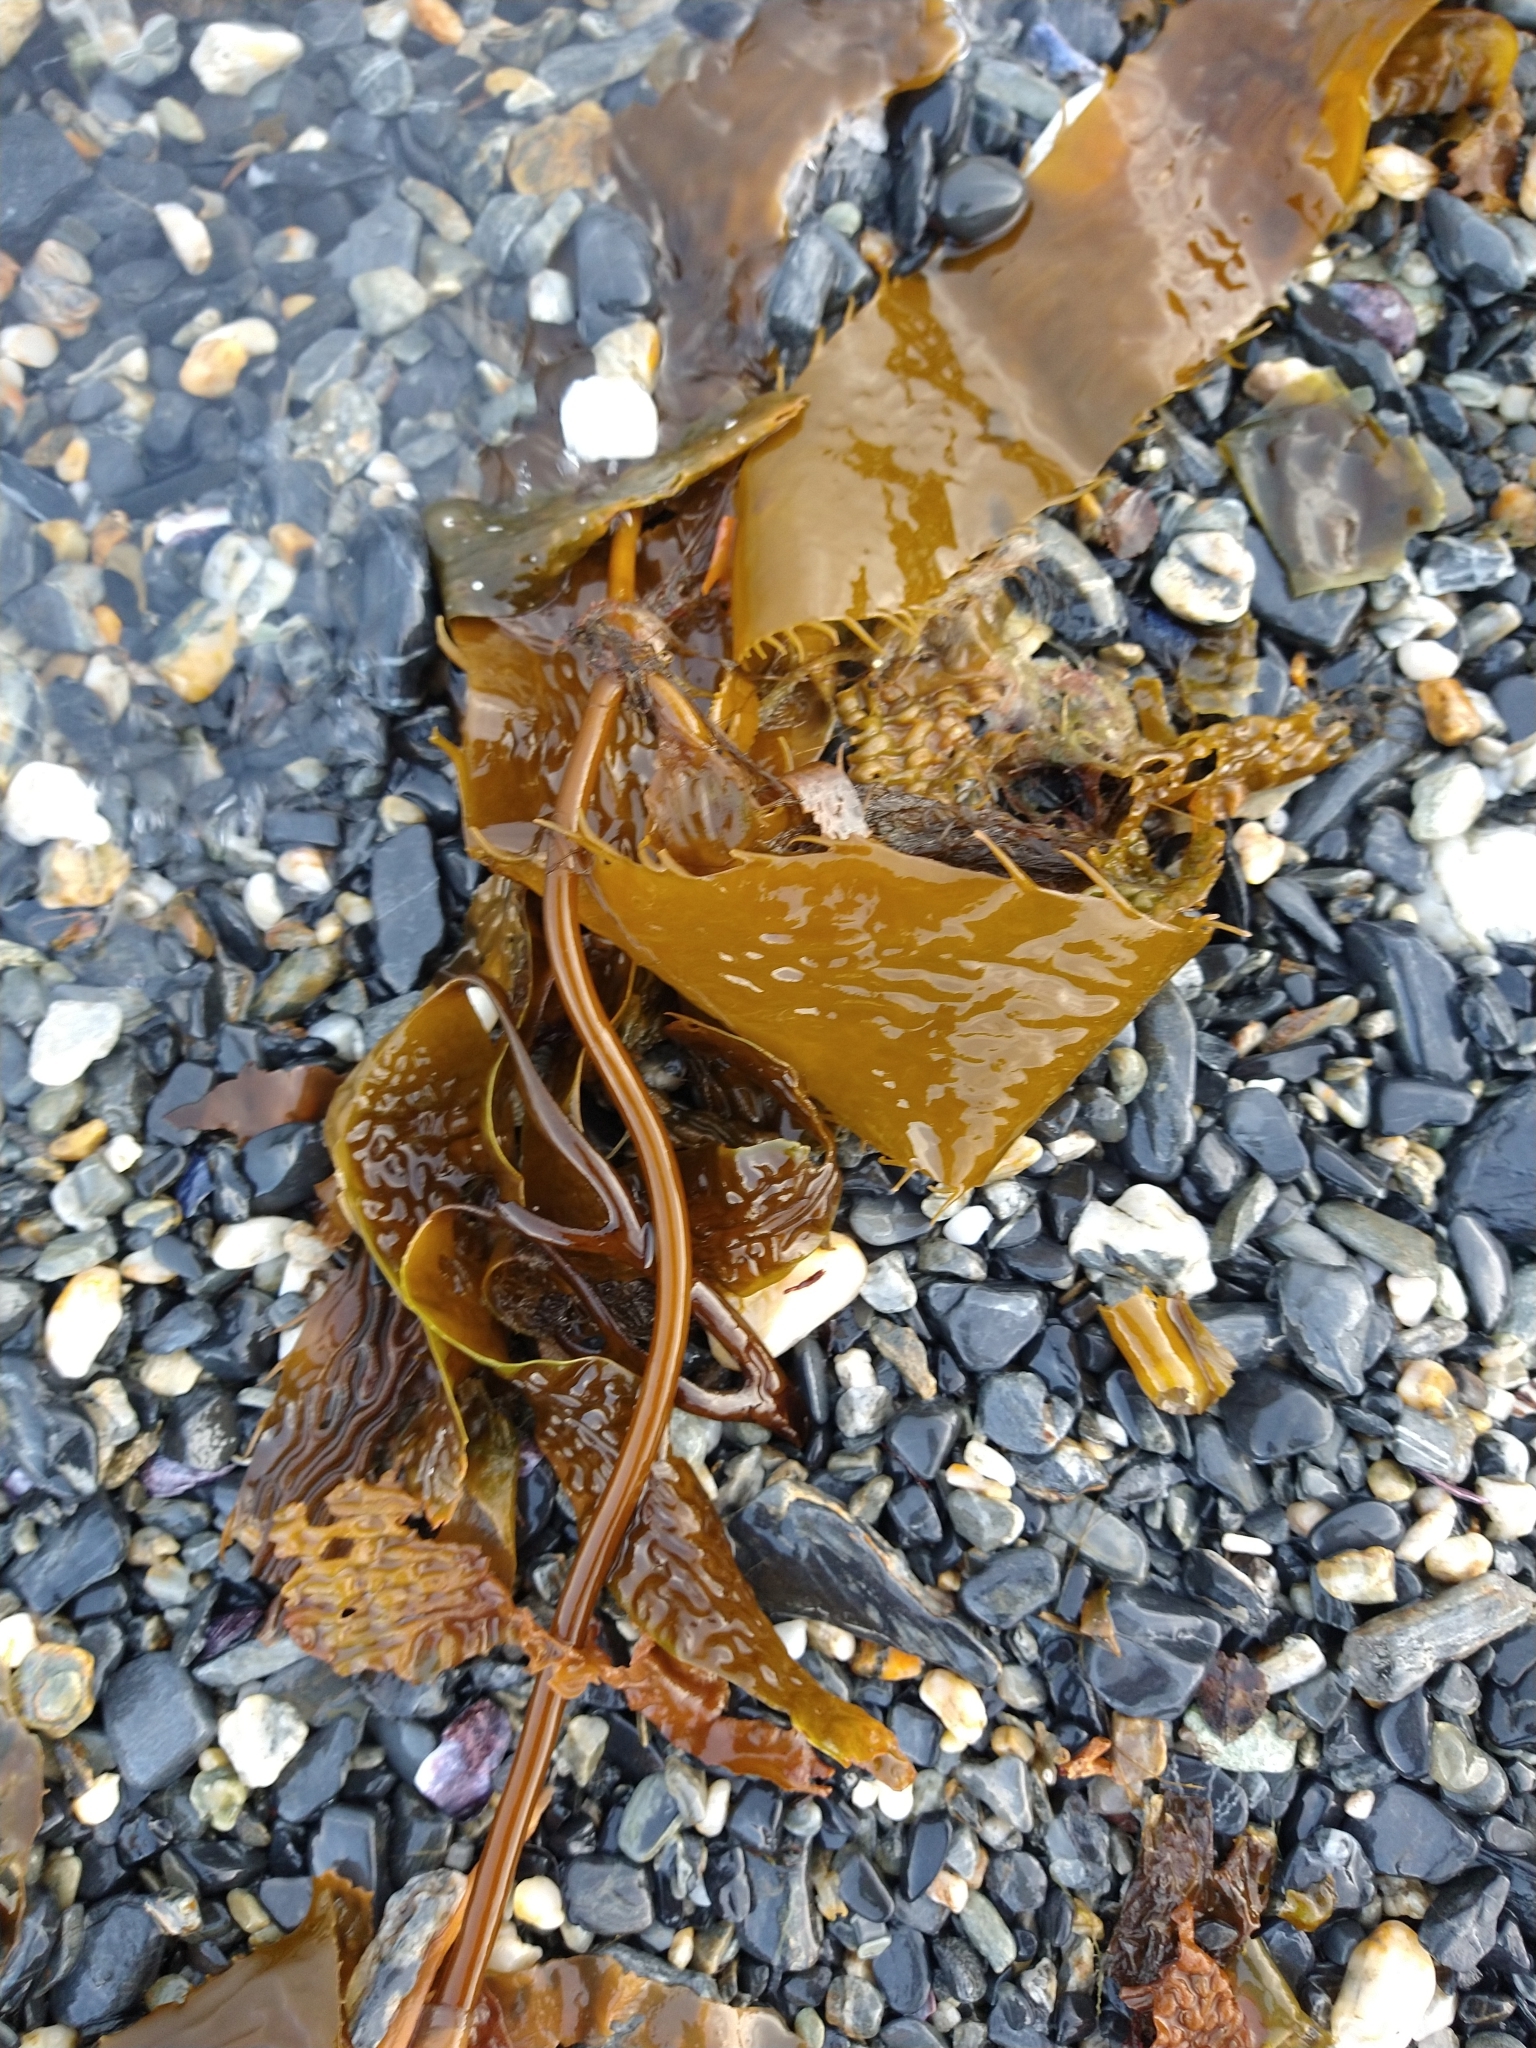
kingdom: Chromista
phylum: Ochrophyta
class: Phaeophyceae
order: Laminariales
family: Laminariaceae
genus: Macrocystis
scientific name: Macrocystis pyrifera
